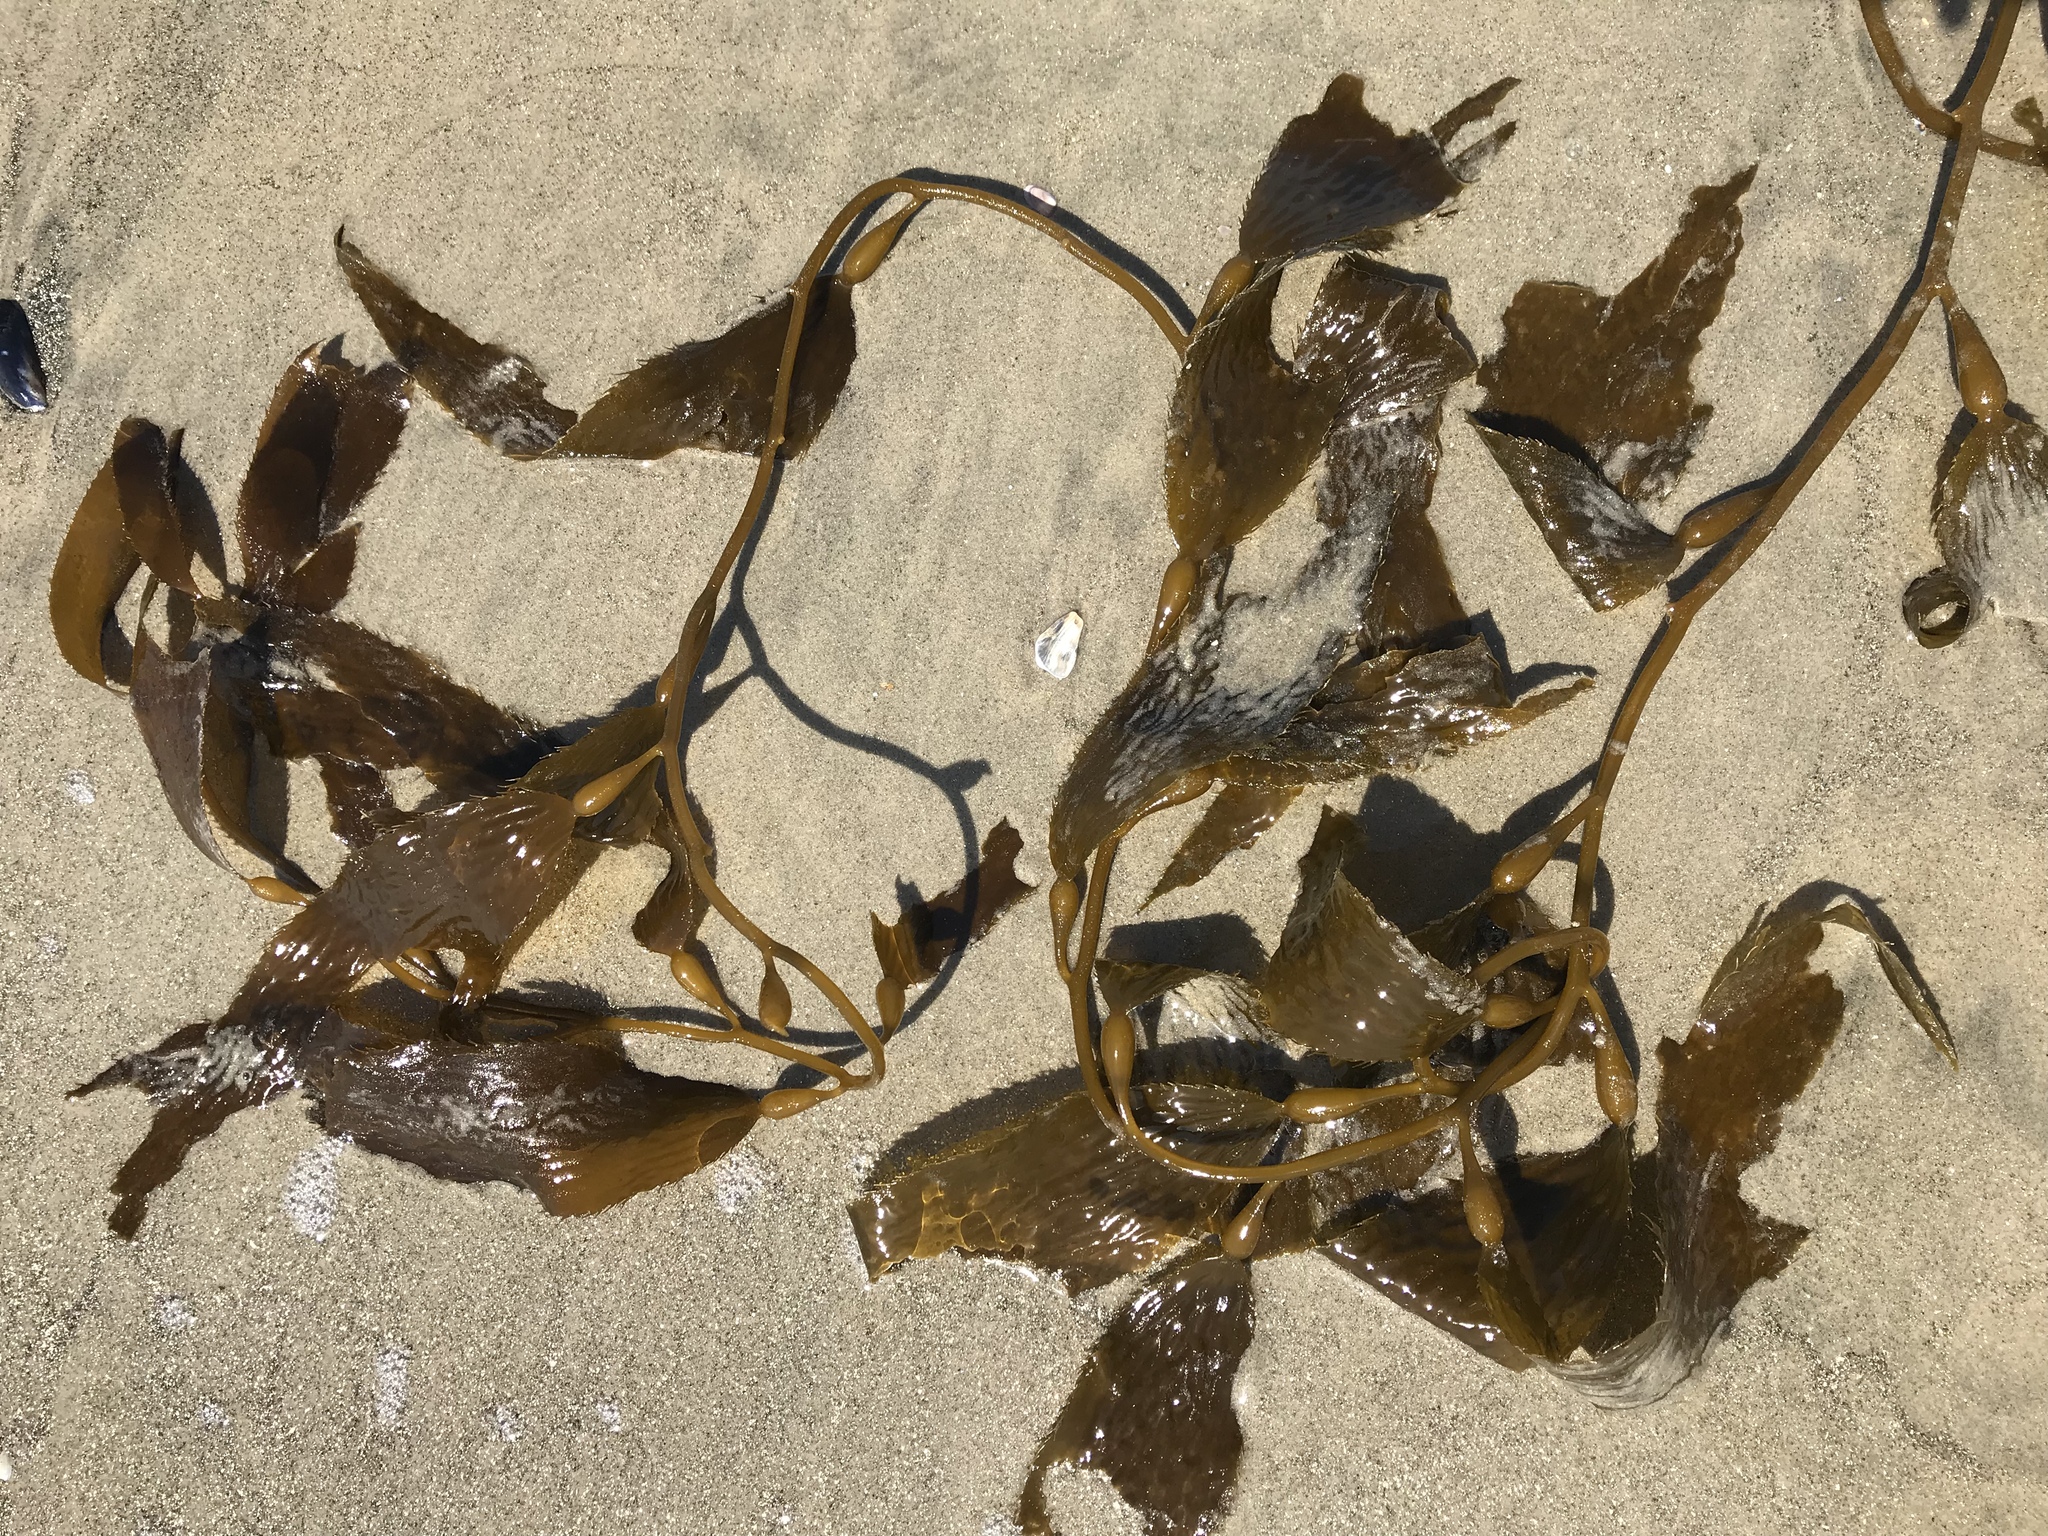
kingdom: Chromista
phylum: Ochrophyta
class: Phaeophyceae
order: Laminariales
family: Laminariaceae
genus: Macrocystis
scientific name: Macrocystis pyrifera
